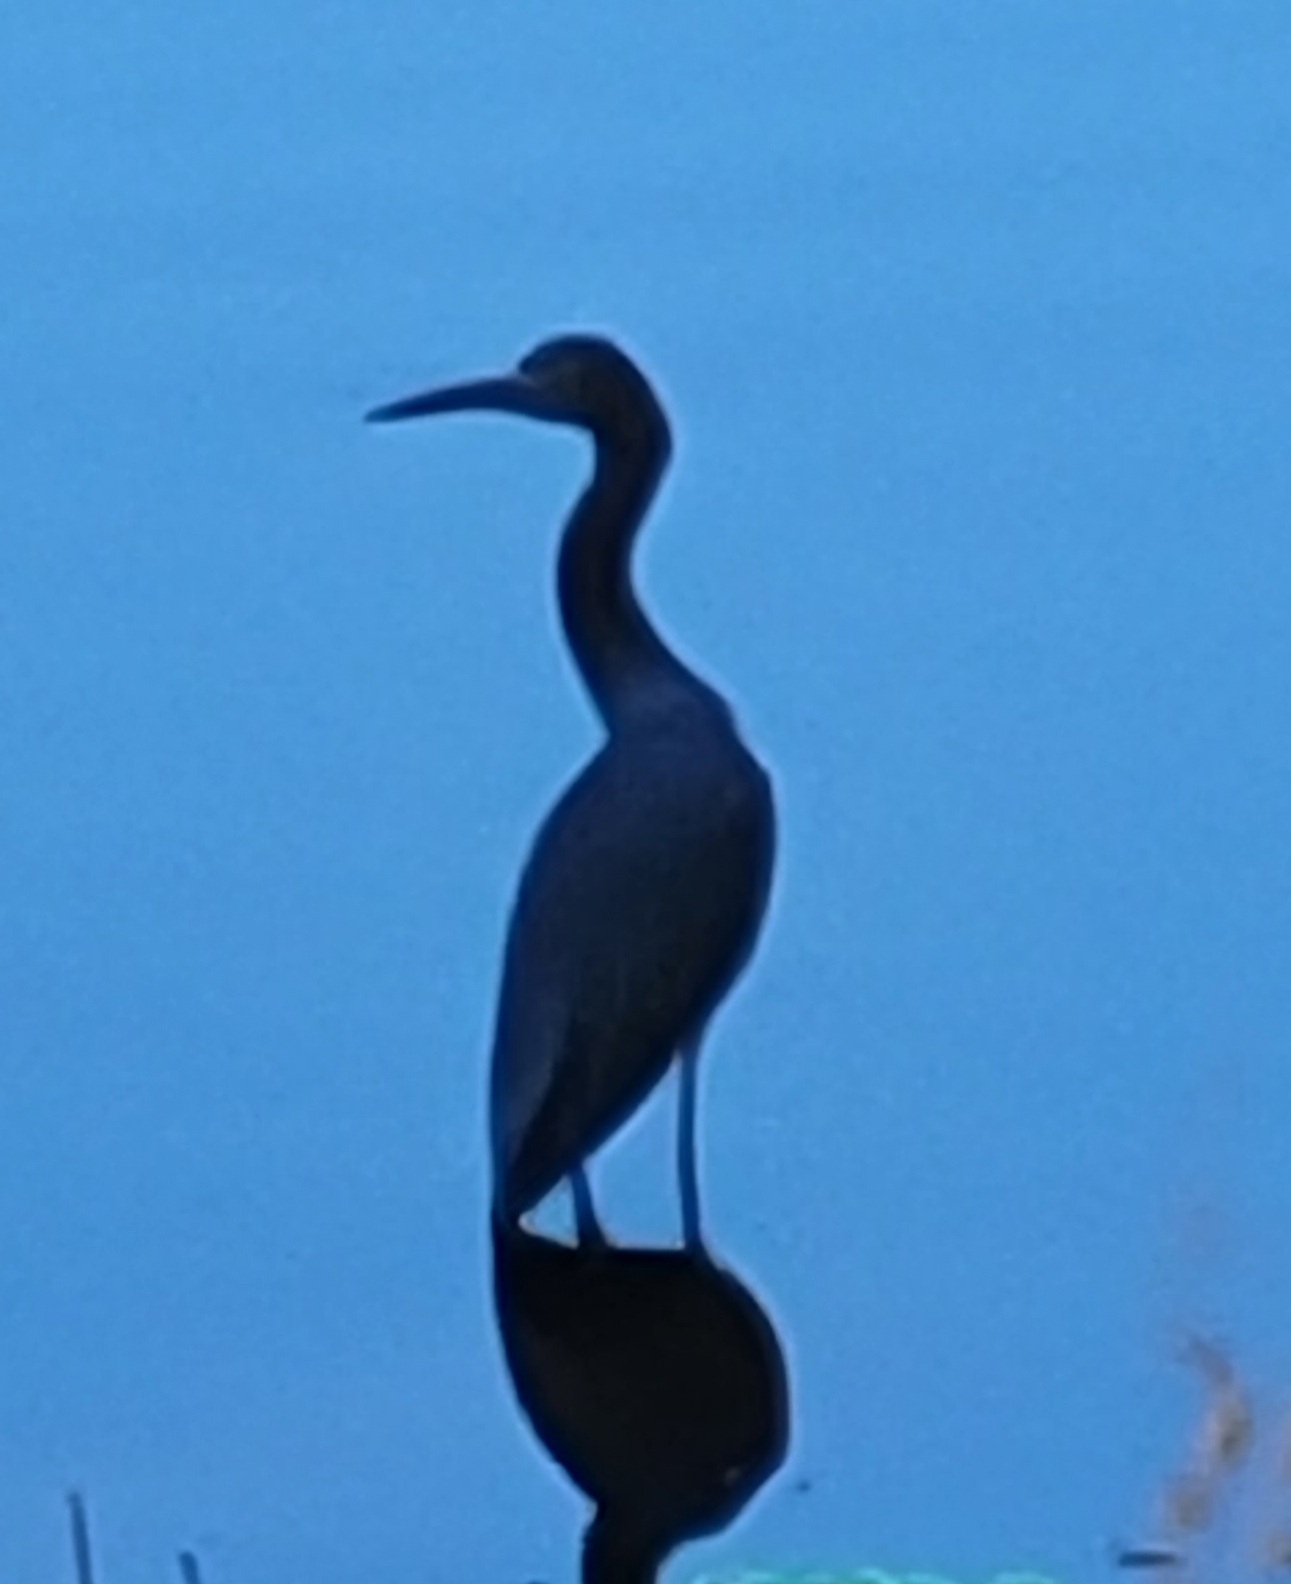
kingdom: Animalia
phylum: Chordata
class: Aves
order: Pelecaniformes
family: Ardeidae
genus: Egretta
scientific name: Egretta caerulea
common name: Little blue heron
